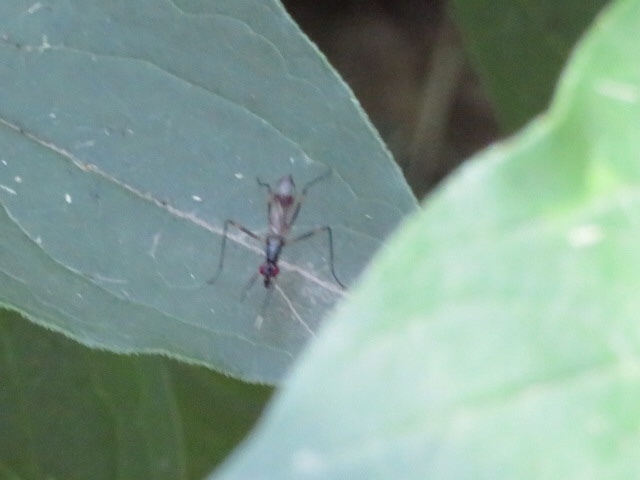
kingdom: Animalia
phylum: Arthropoda
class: Insecta
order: Diptera
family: Micropezidae
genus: Rainieria
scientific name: Rainieria antennaepes
